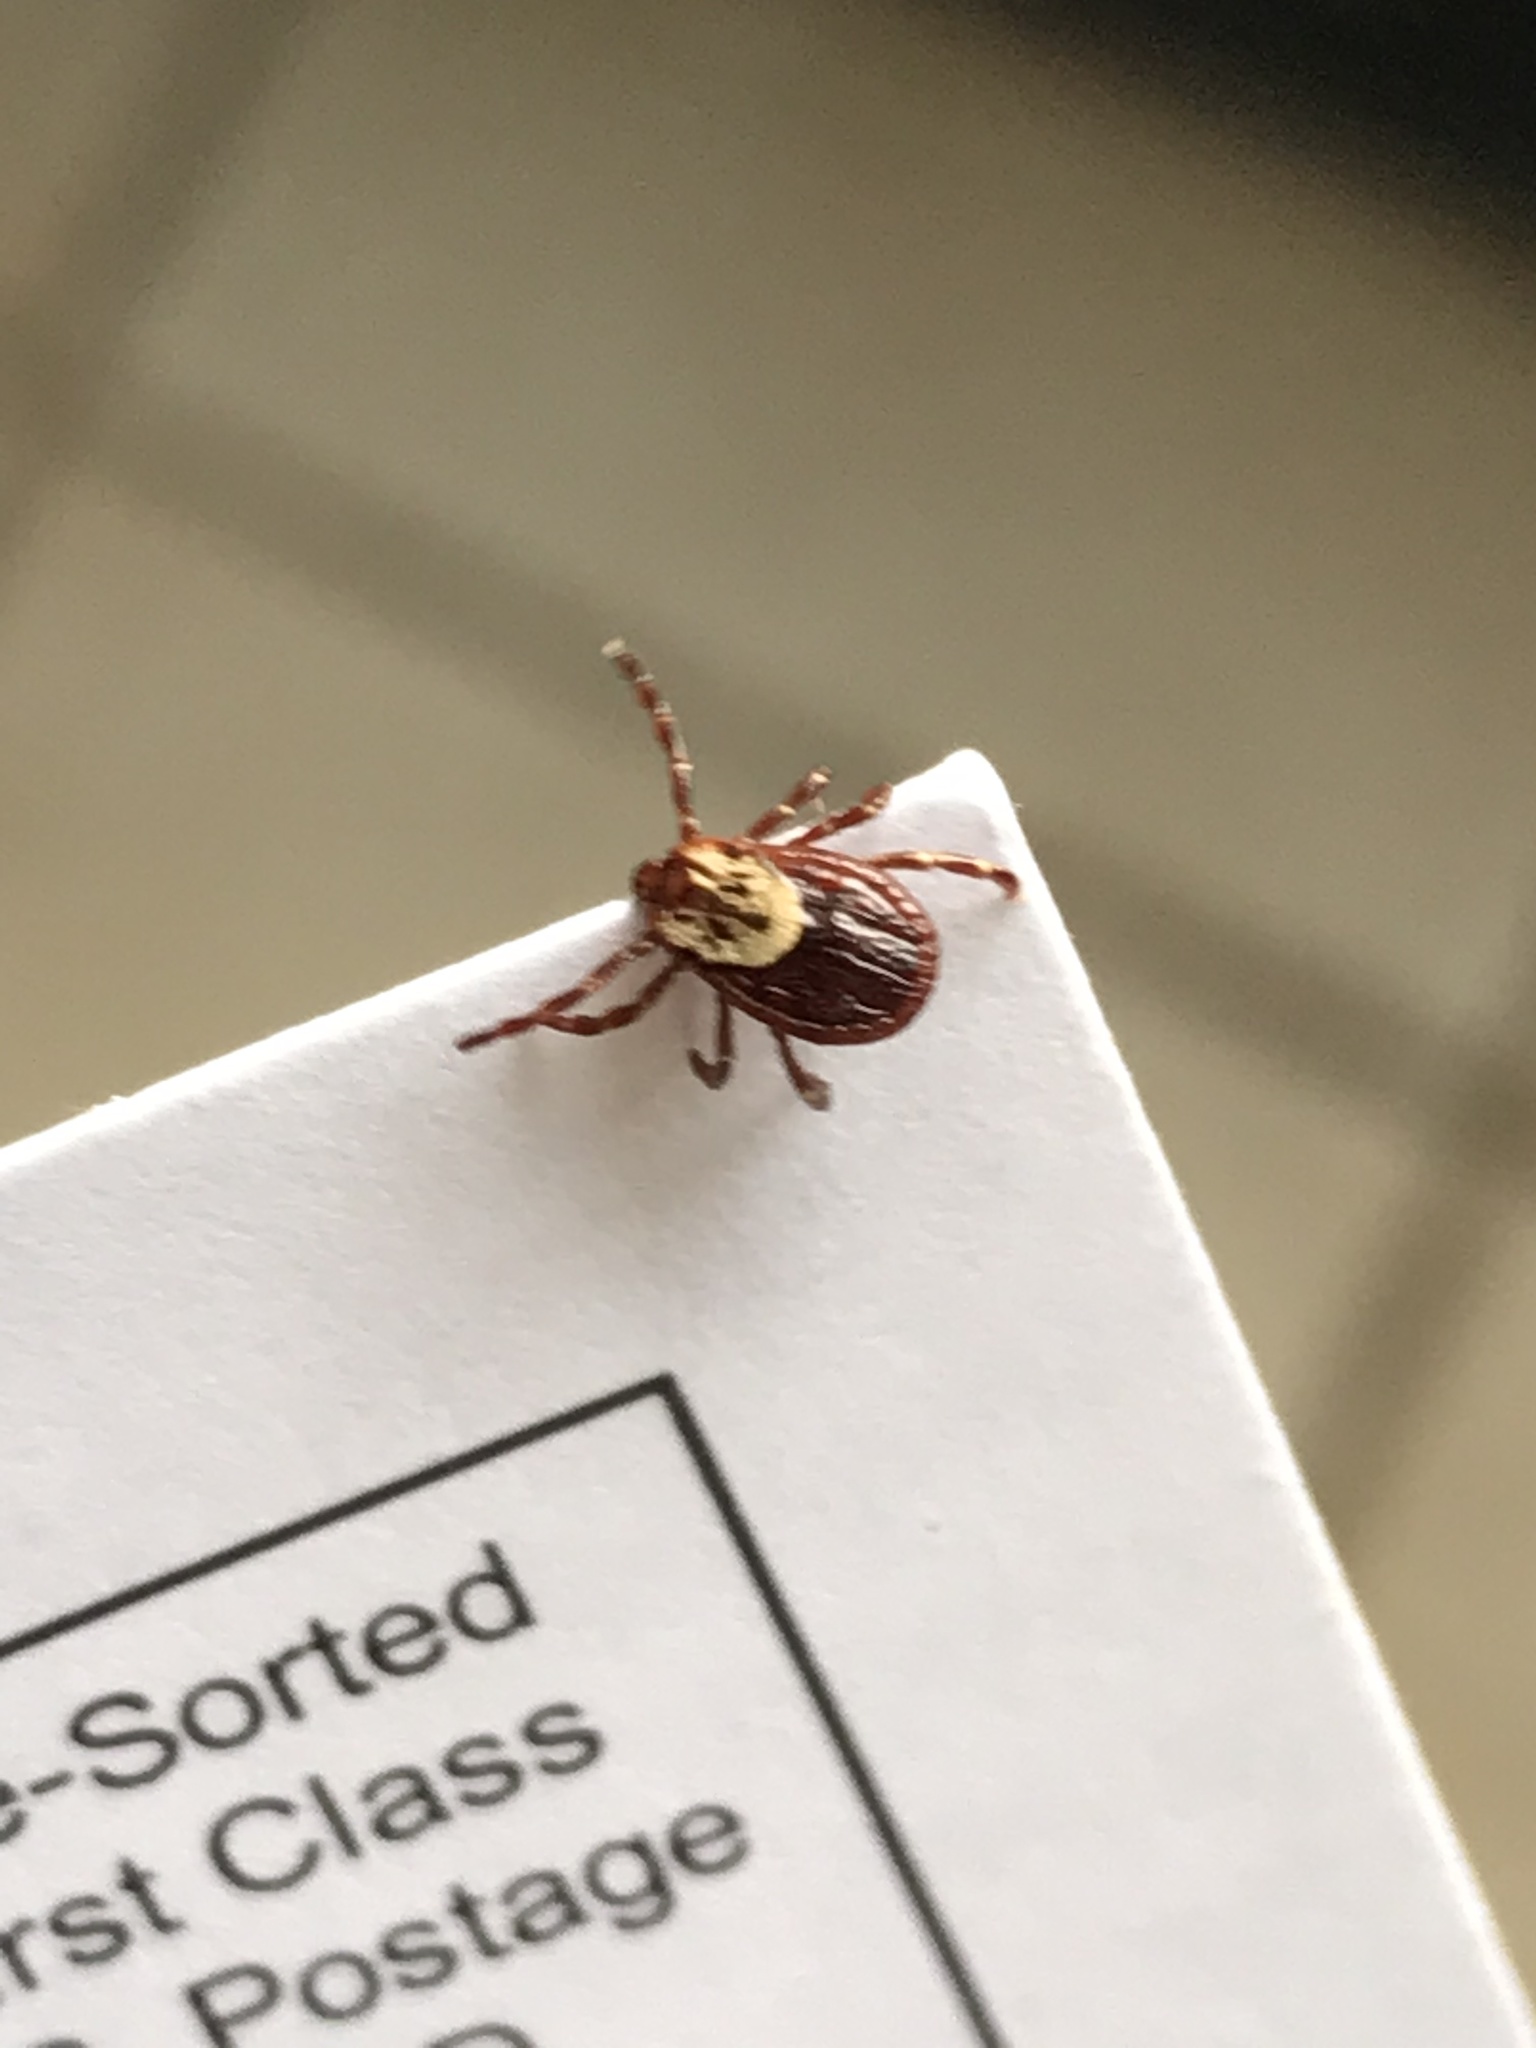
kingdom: Animalia
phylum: Arthropoda
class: Arachnida
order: Ixodida
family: Ixodidae
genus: Dermacentor
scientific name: Dermacentor variabilis
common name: American dog tick
